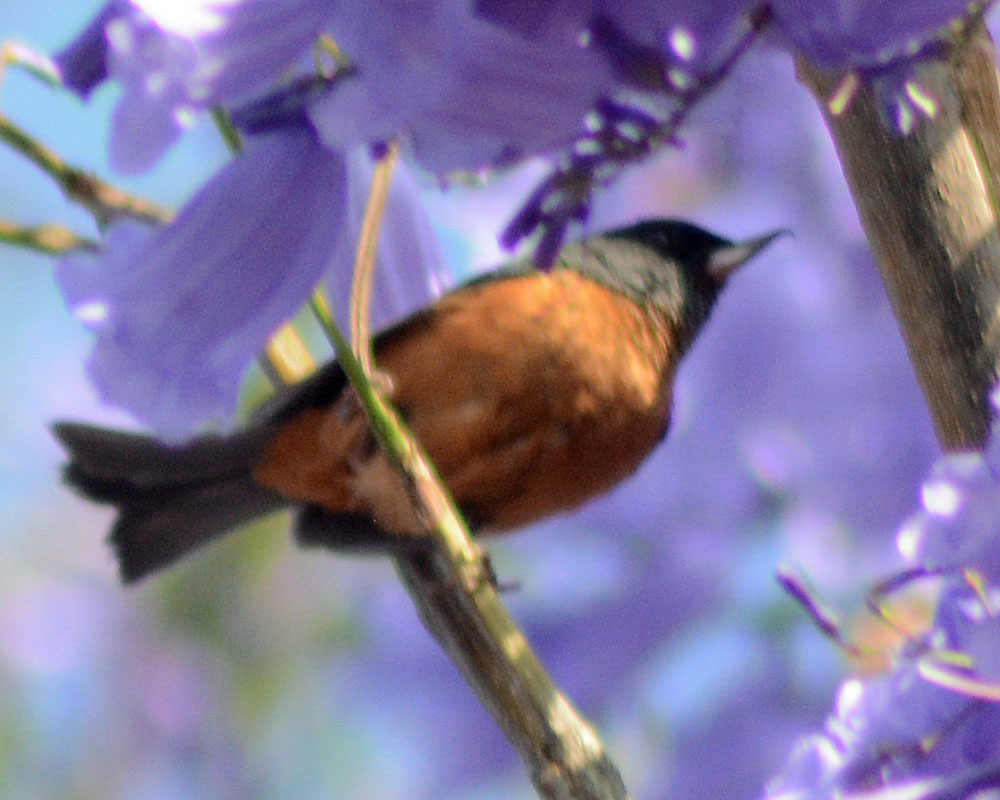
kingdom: Animalia
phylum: Chordata
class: Aves
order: Passeriformes
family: Thraupidae
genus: Diglossa
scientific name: Diglossa baritula
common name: Cinnamon-bellied flowerpiercer
